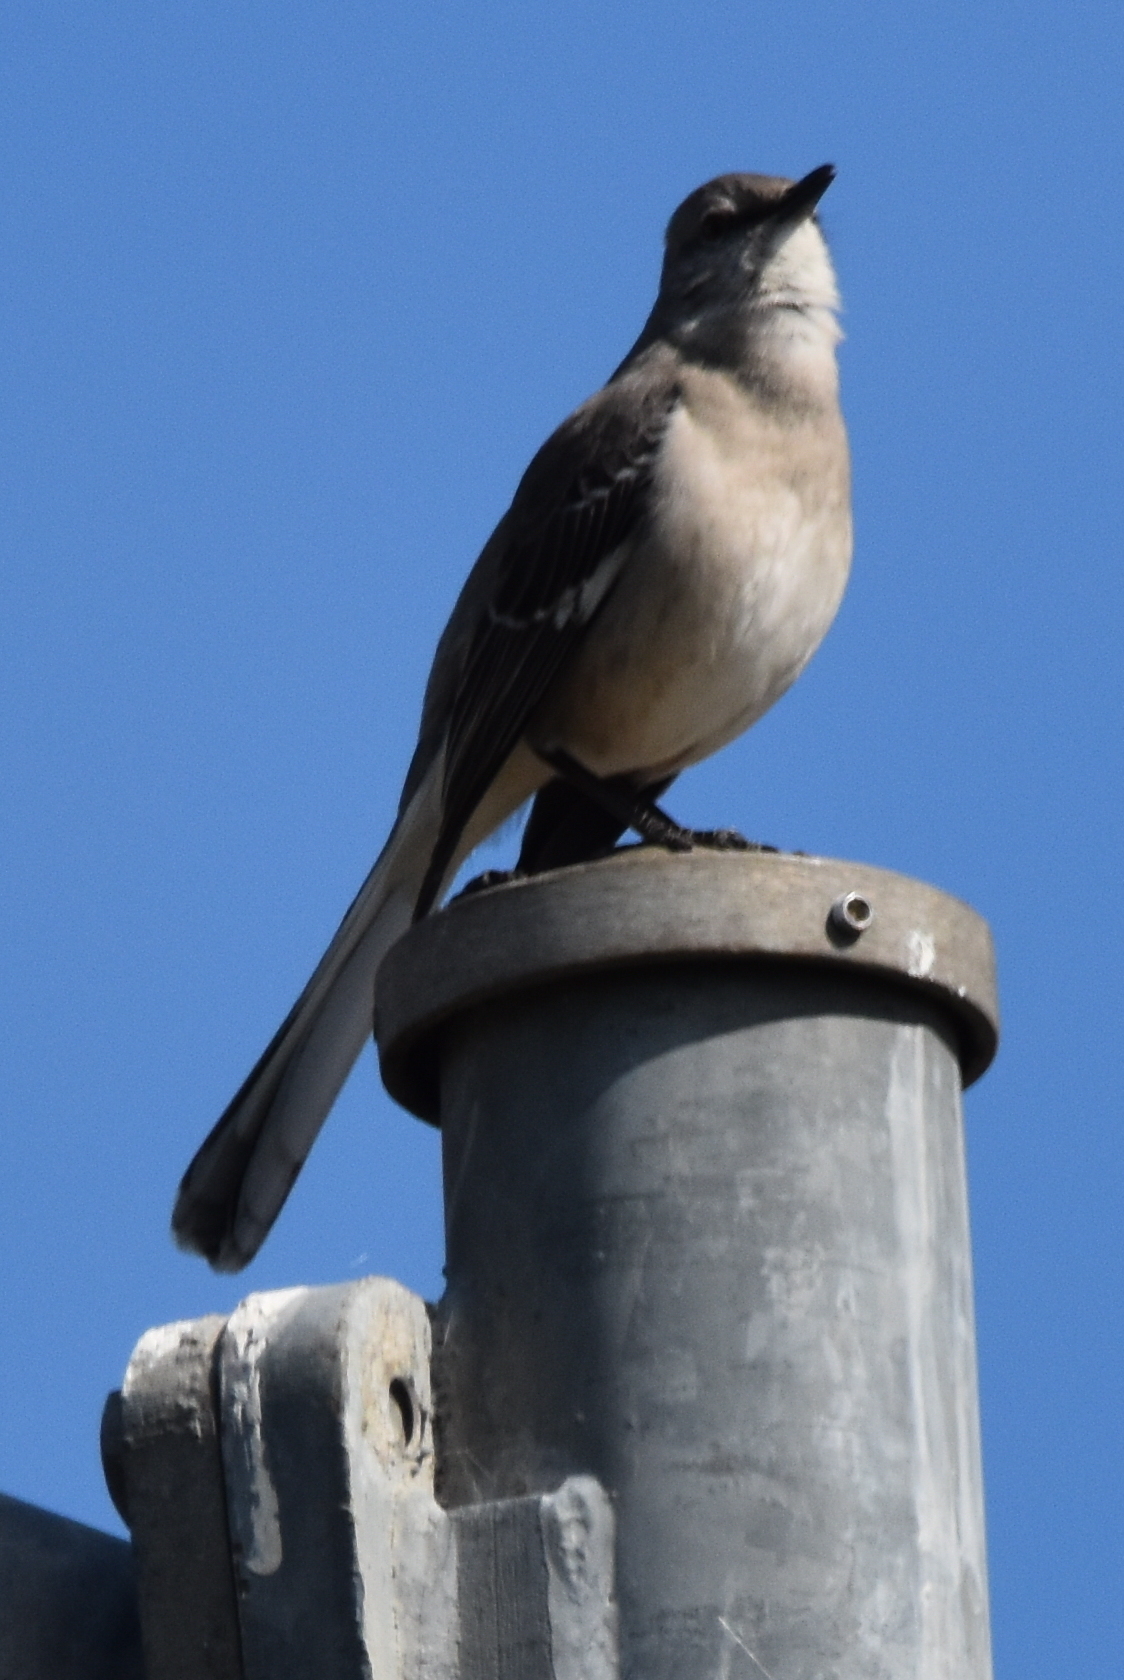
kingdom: Animalia
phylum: Chordata
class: Aves
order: Passeriformes
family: Mimidae
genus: Mimus
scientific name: Mimus polyglottos
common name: Northern mockingbird
